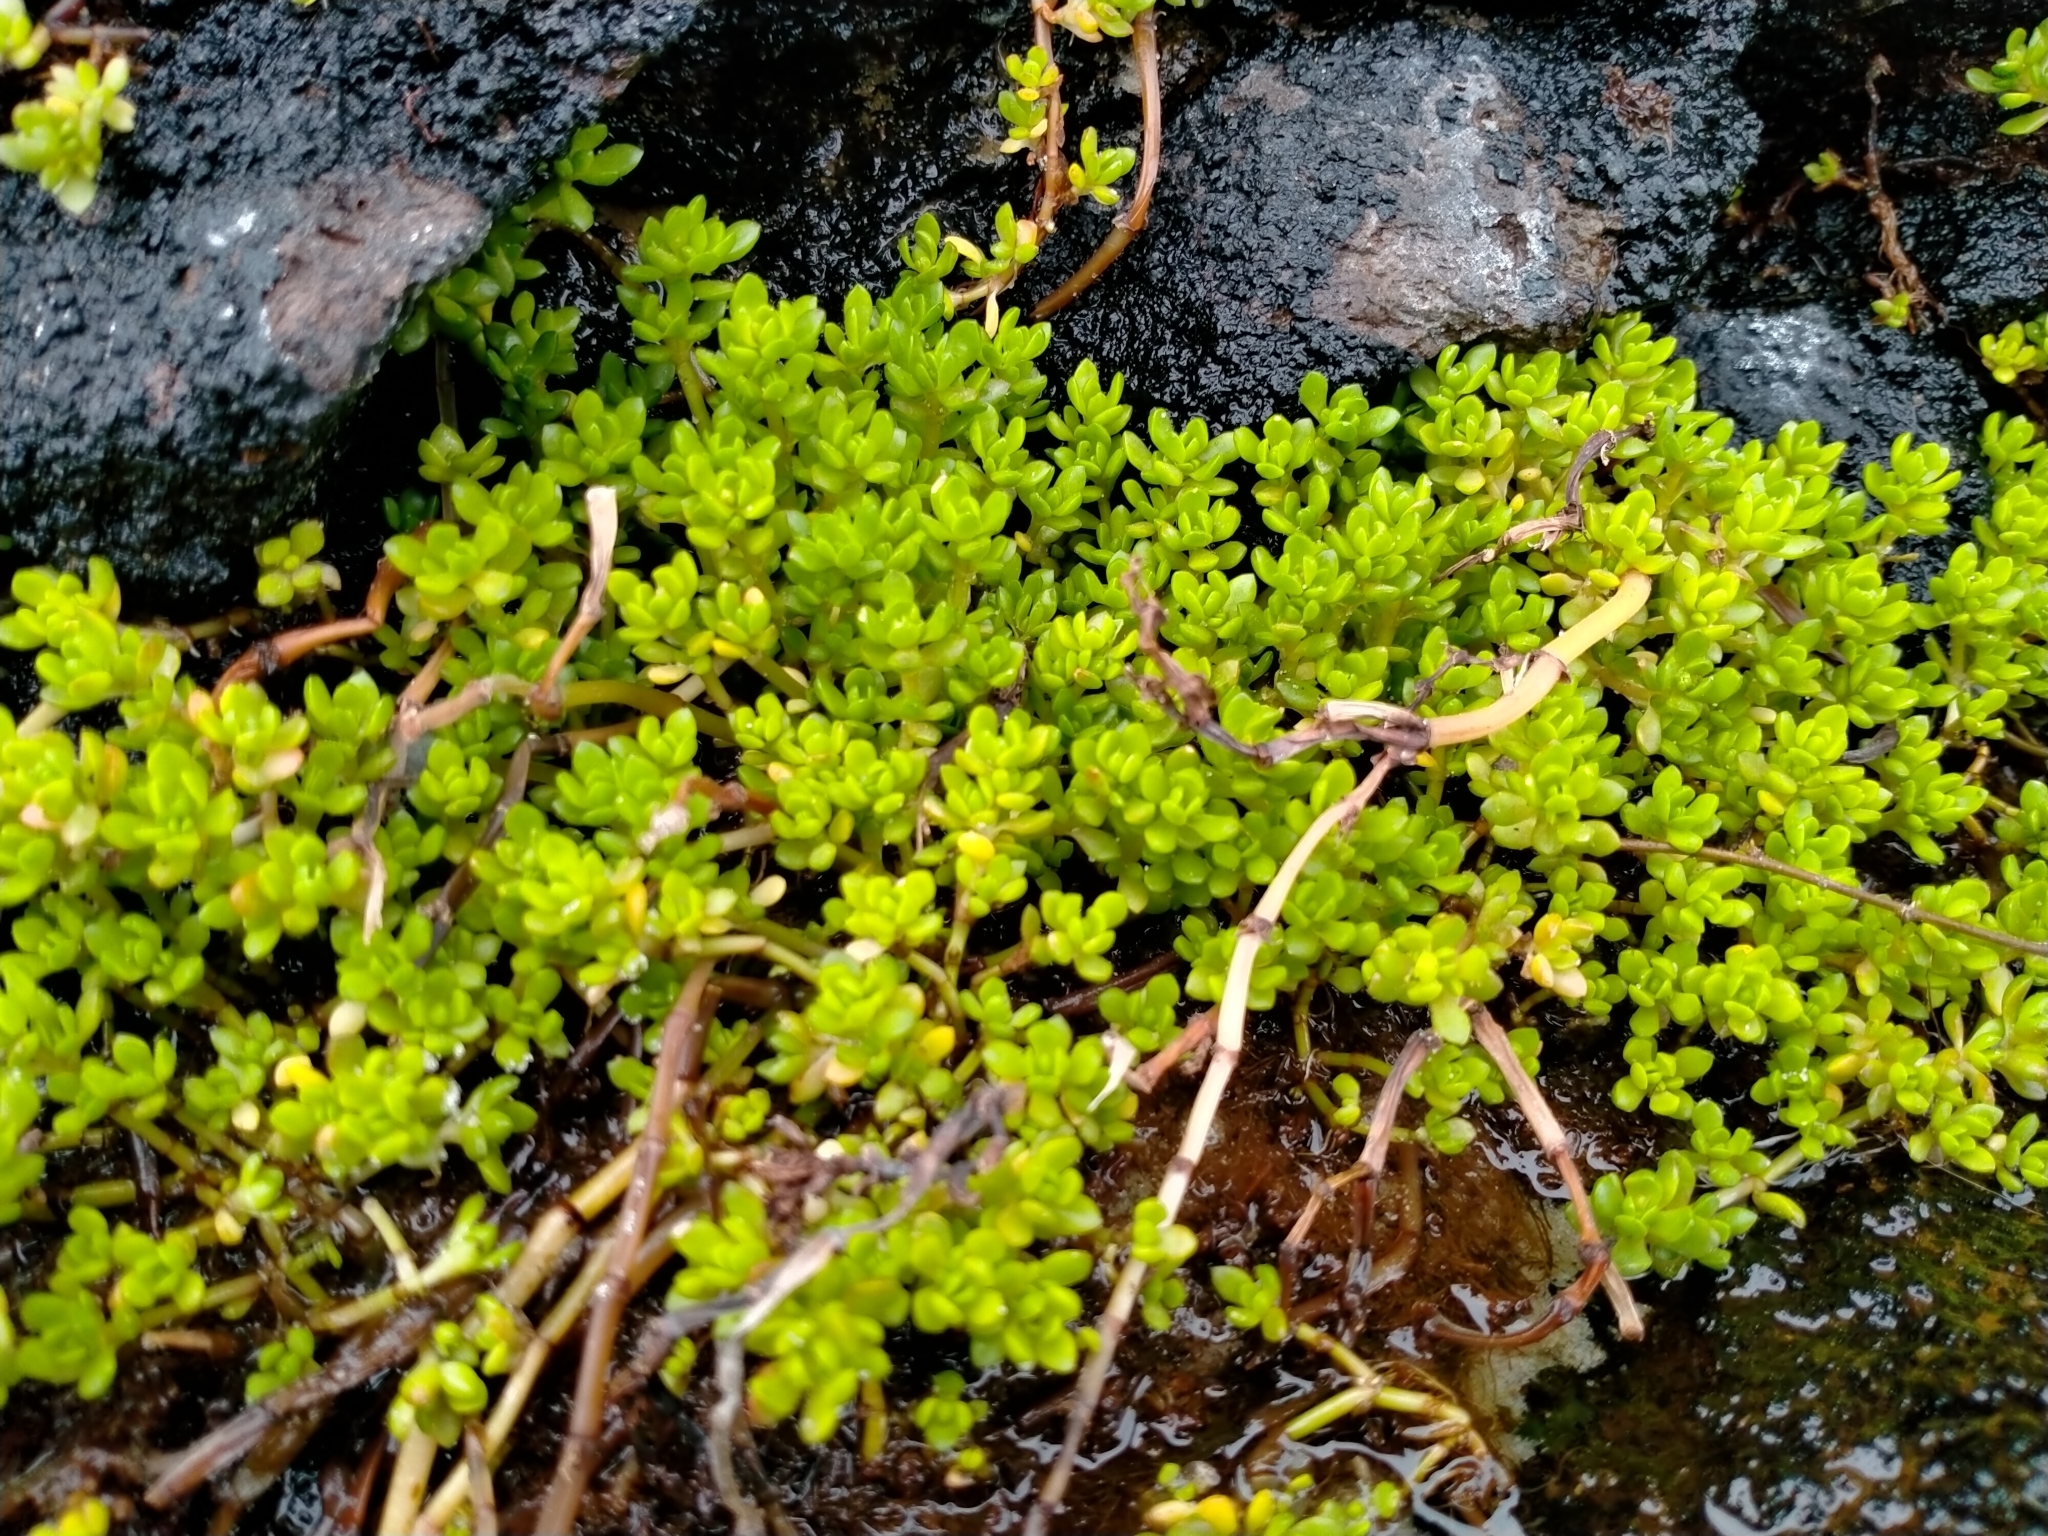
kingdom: Plantae
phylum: Tracheophyta
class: Magnoliopsida
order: Saxifragales
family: Crassulaceae
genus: Crassula
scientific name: Crassula moschata
